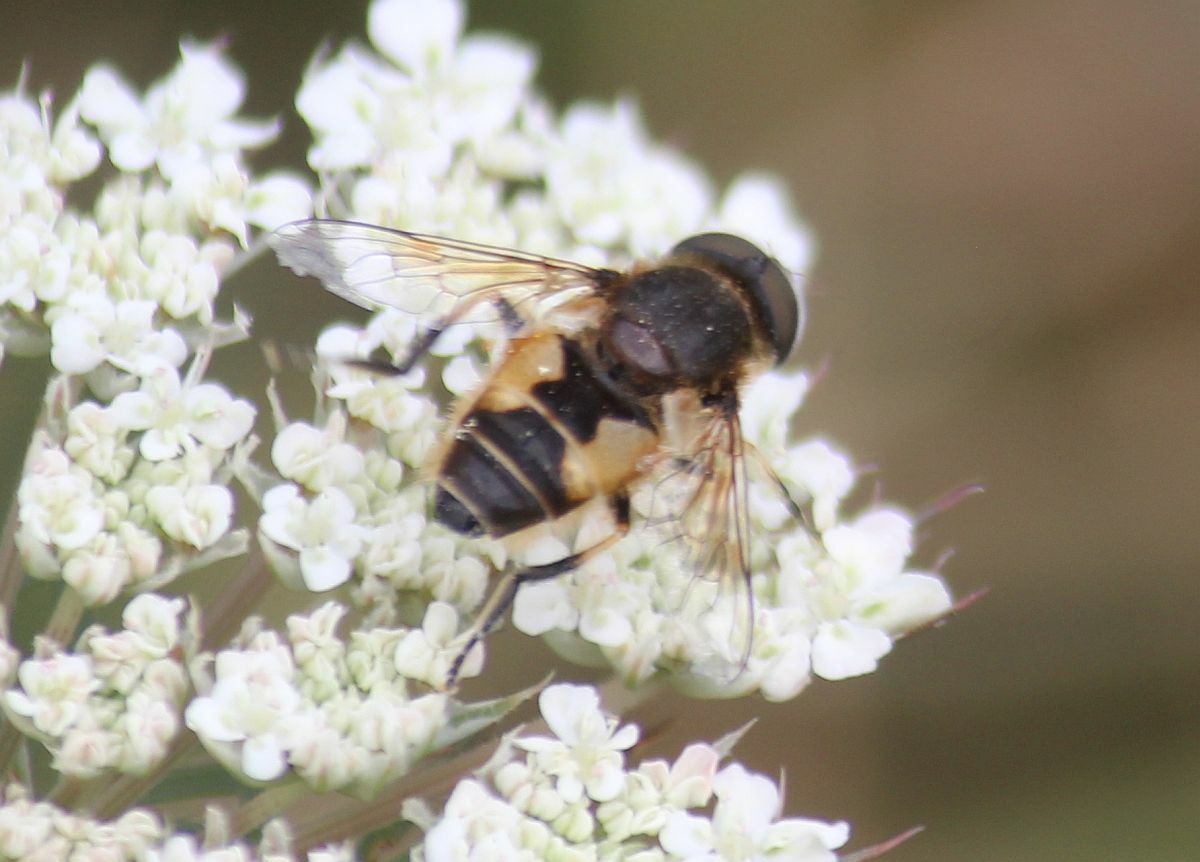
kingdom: Animalia
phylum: Arthropoda
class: Insecta
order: Diptera
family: Syrphidae
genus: Eristalis
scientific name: Eristalis arbustorum
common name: Hover fly
